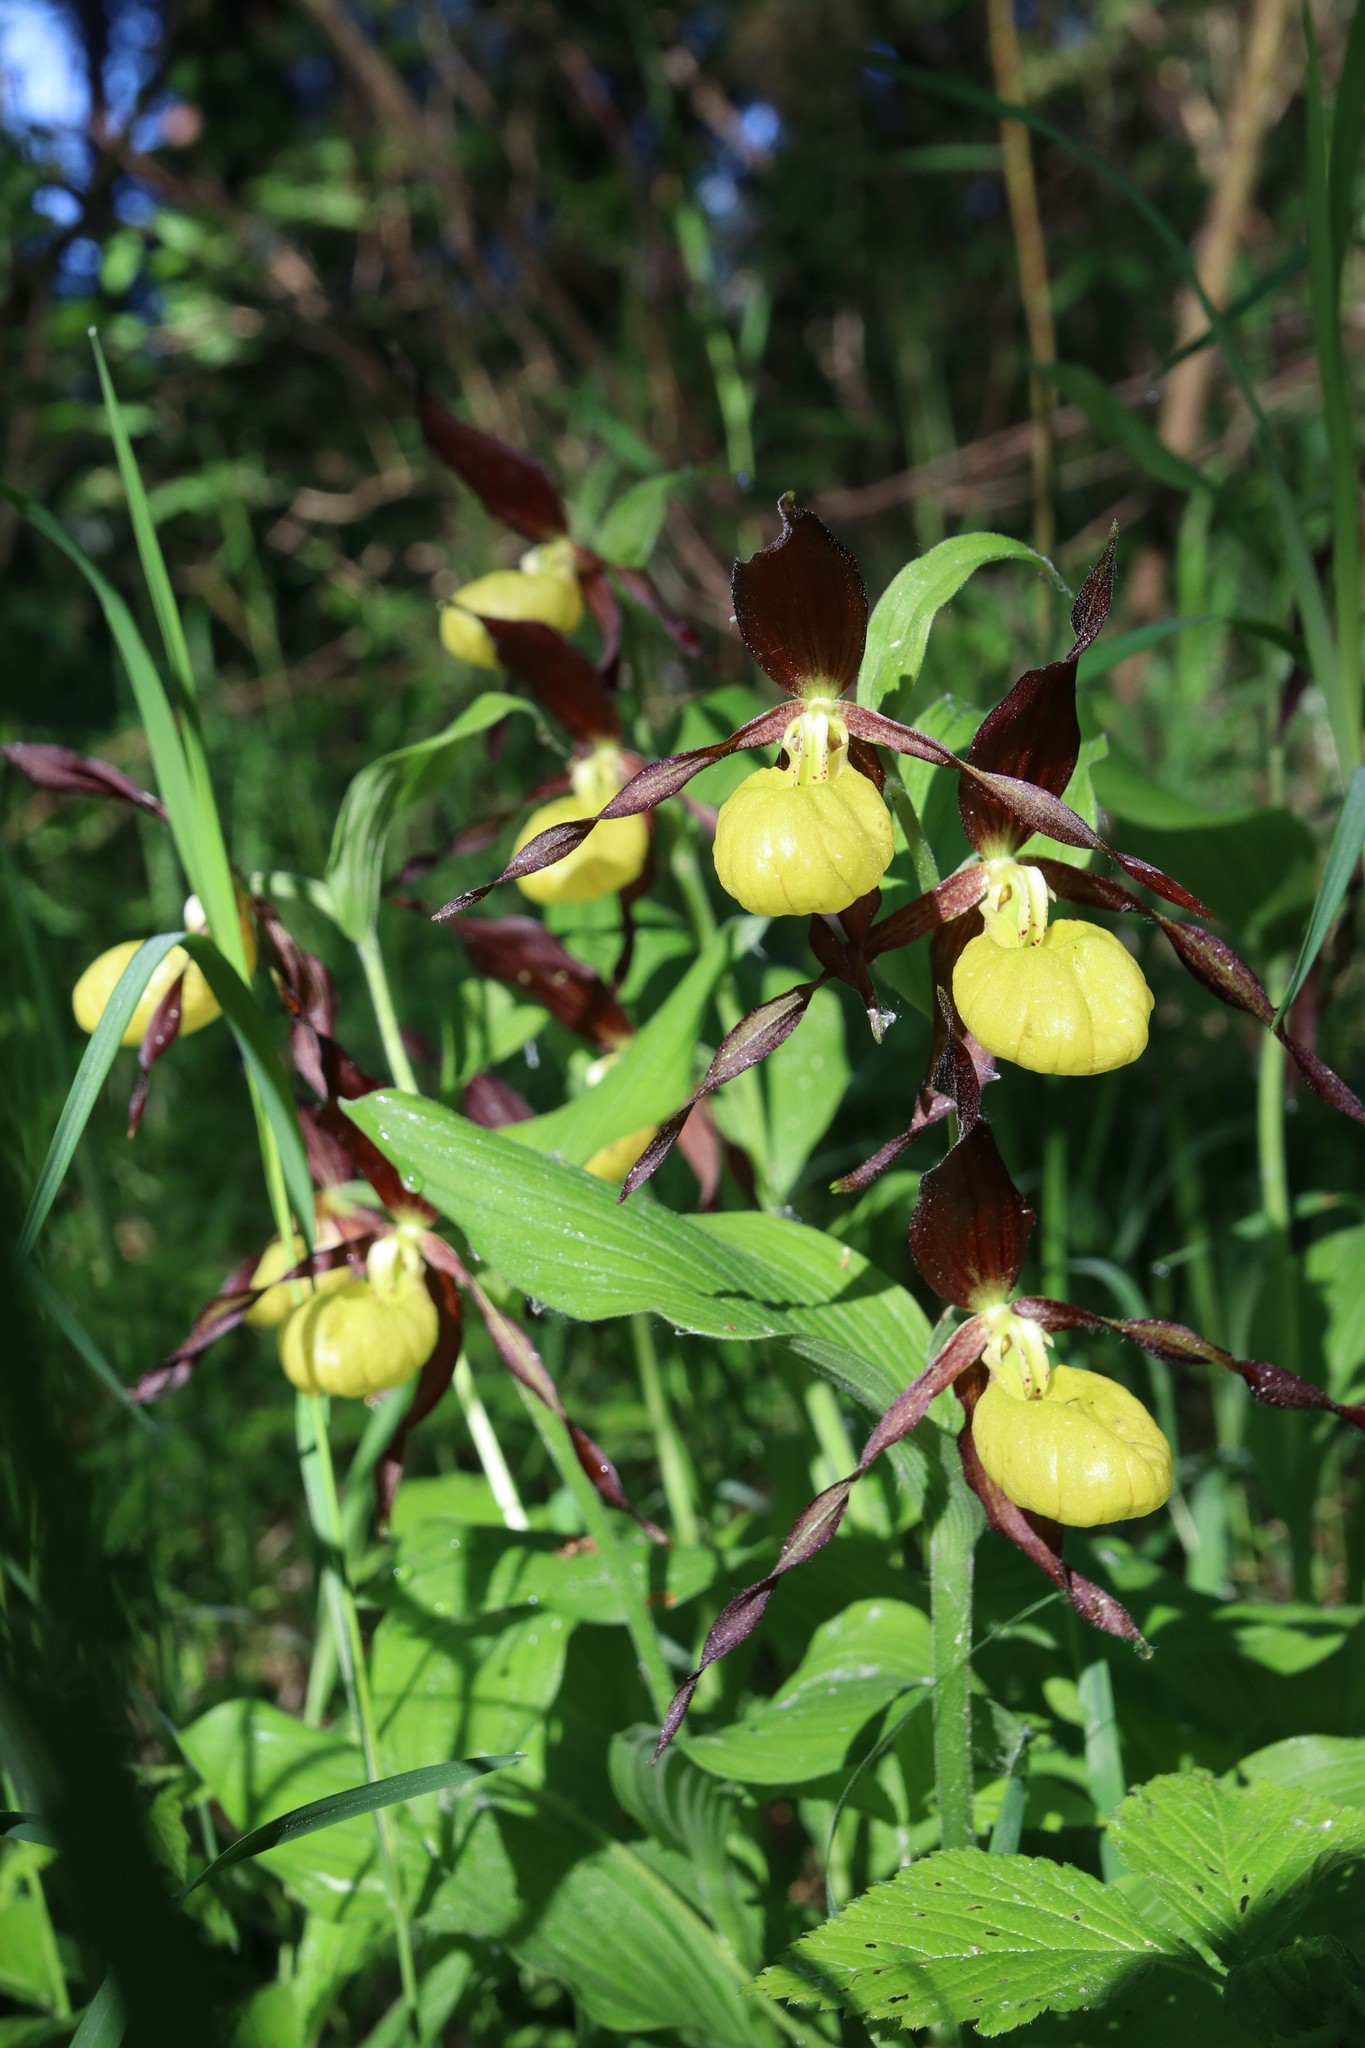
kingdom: Plantae
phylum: Tracheophyta
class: Liliopsida
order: Asparagales
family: Orchidaceae
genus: Cypripedium
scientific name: Cypripedium calceolus
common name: Lady's-slipper
